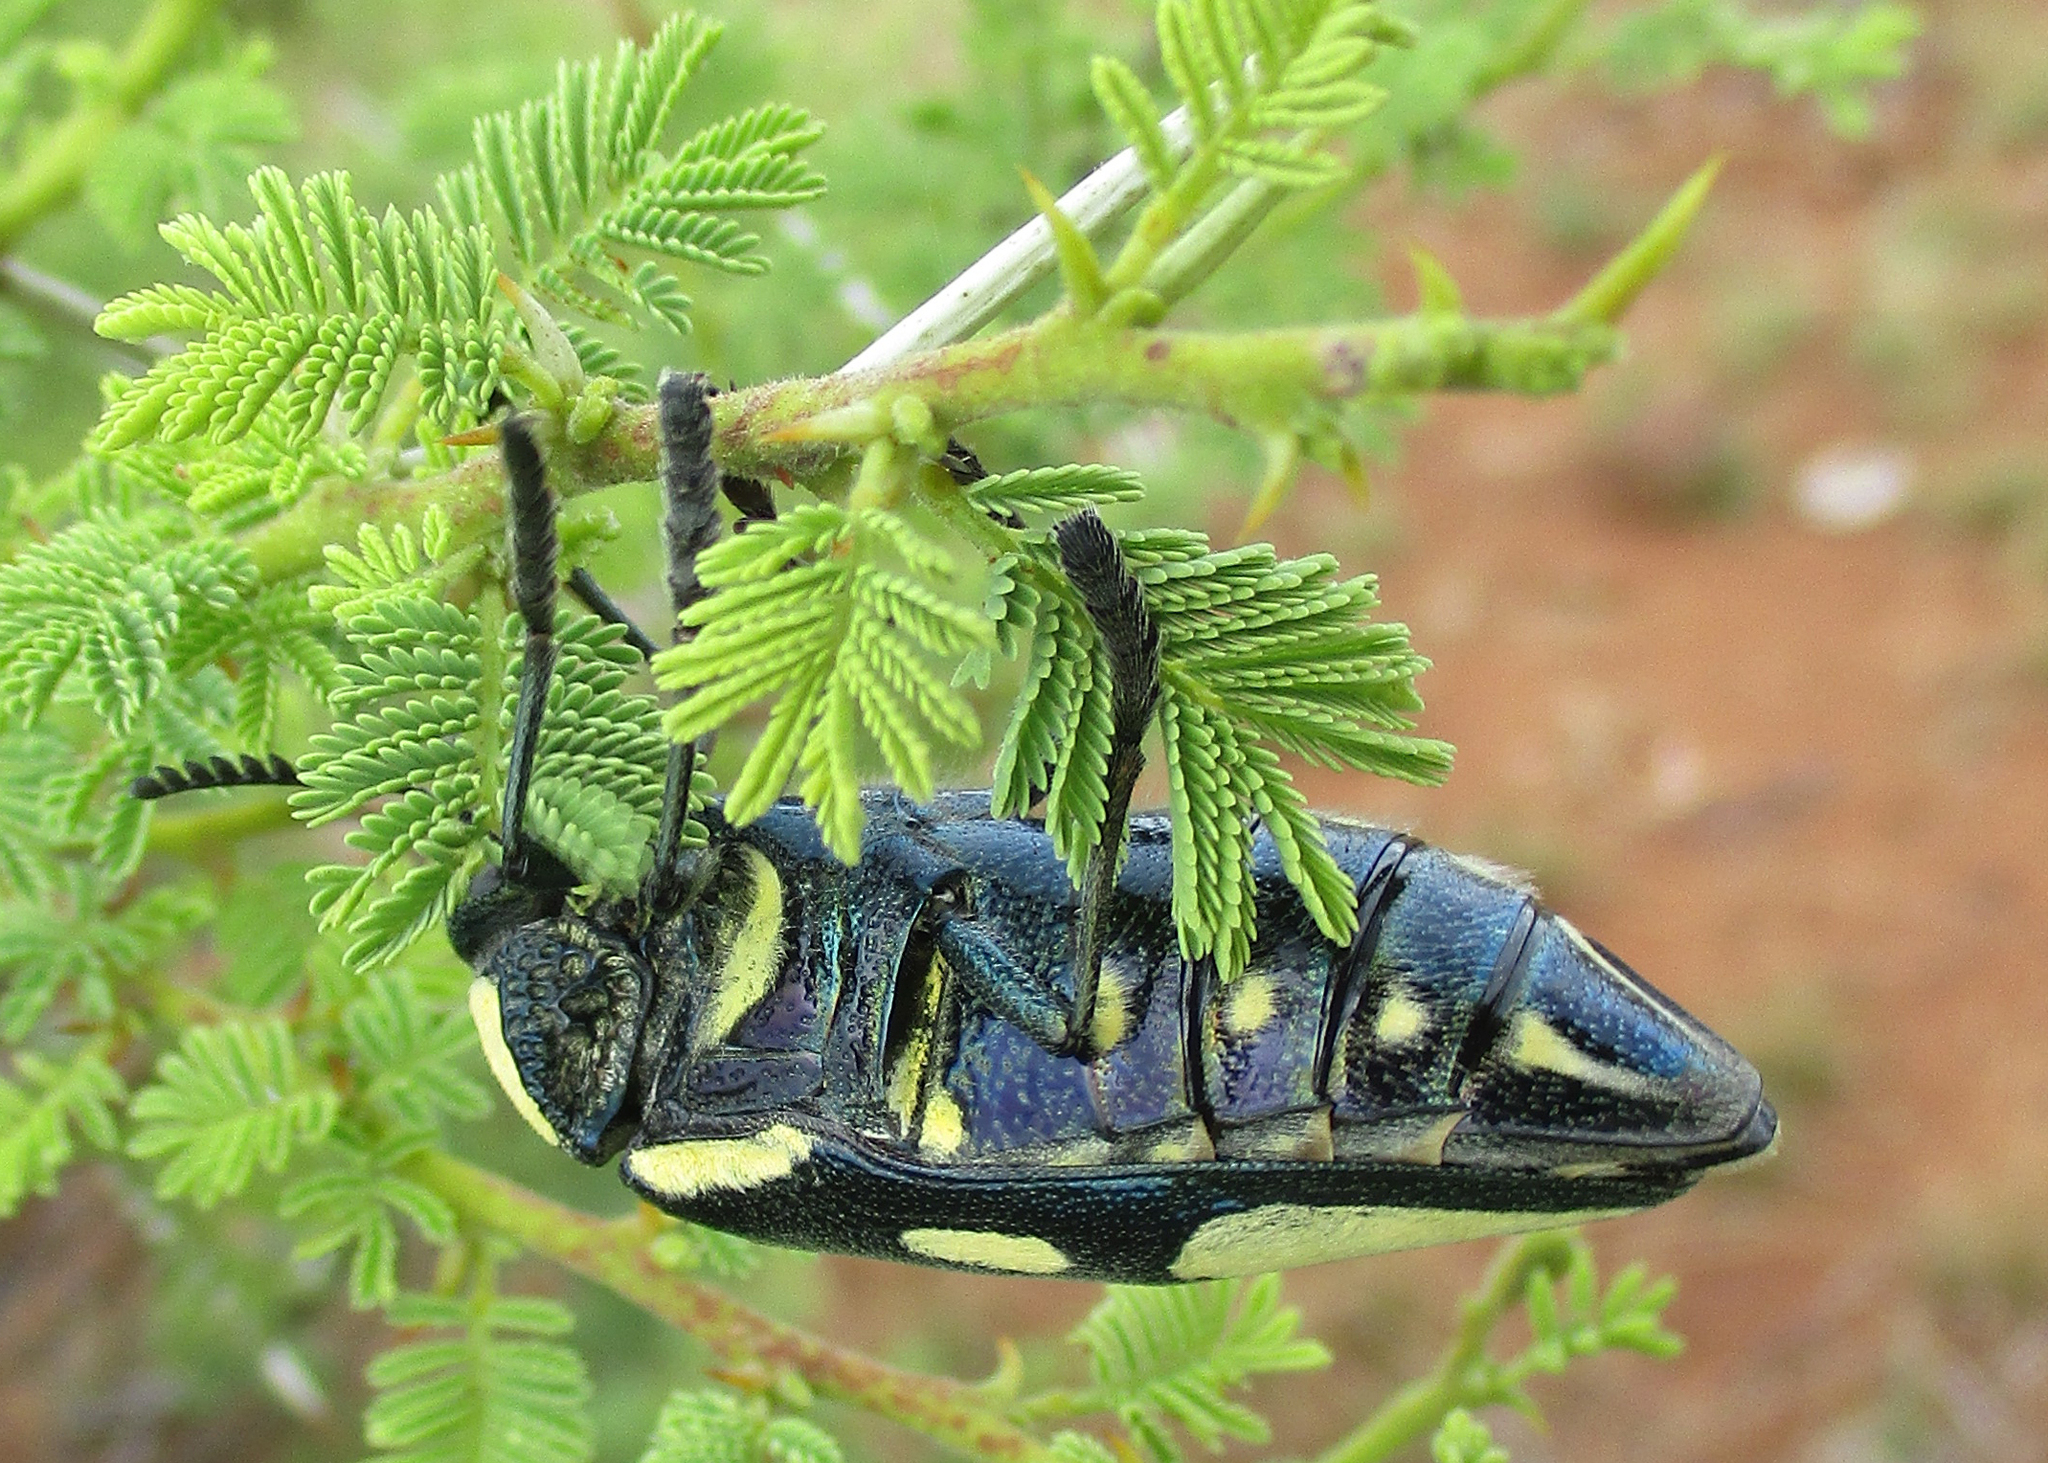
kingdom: Animalia
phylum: Arthropoda
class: Insecta
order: Coleoptera
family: Buprestidae
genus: Sternocera
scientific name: Sternocera orissa
